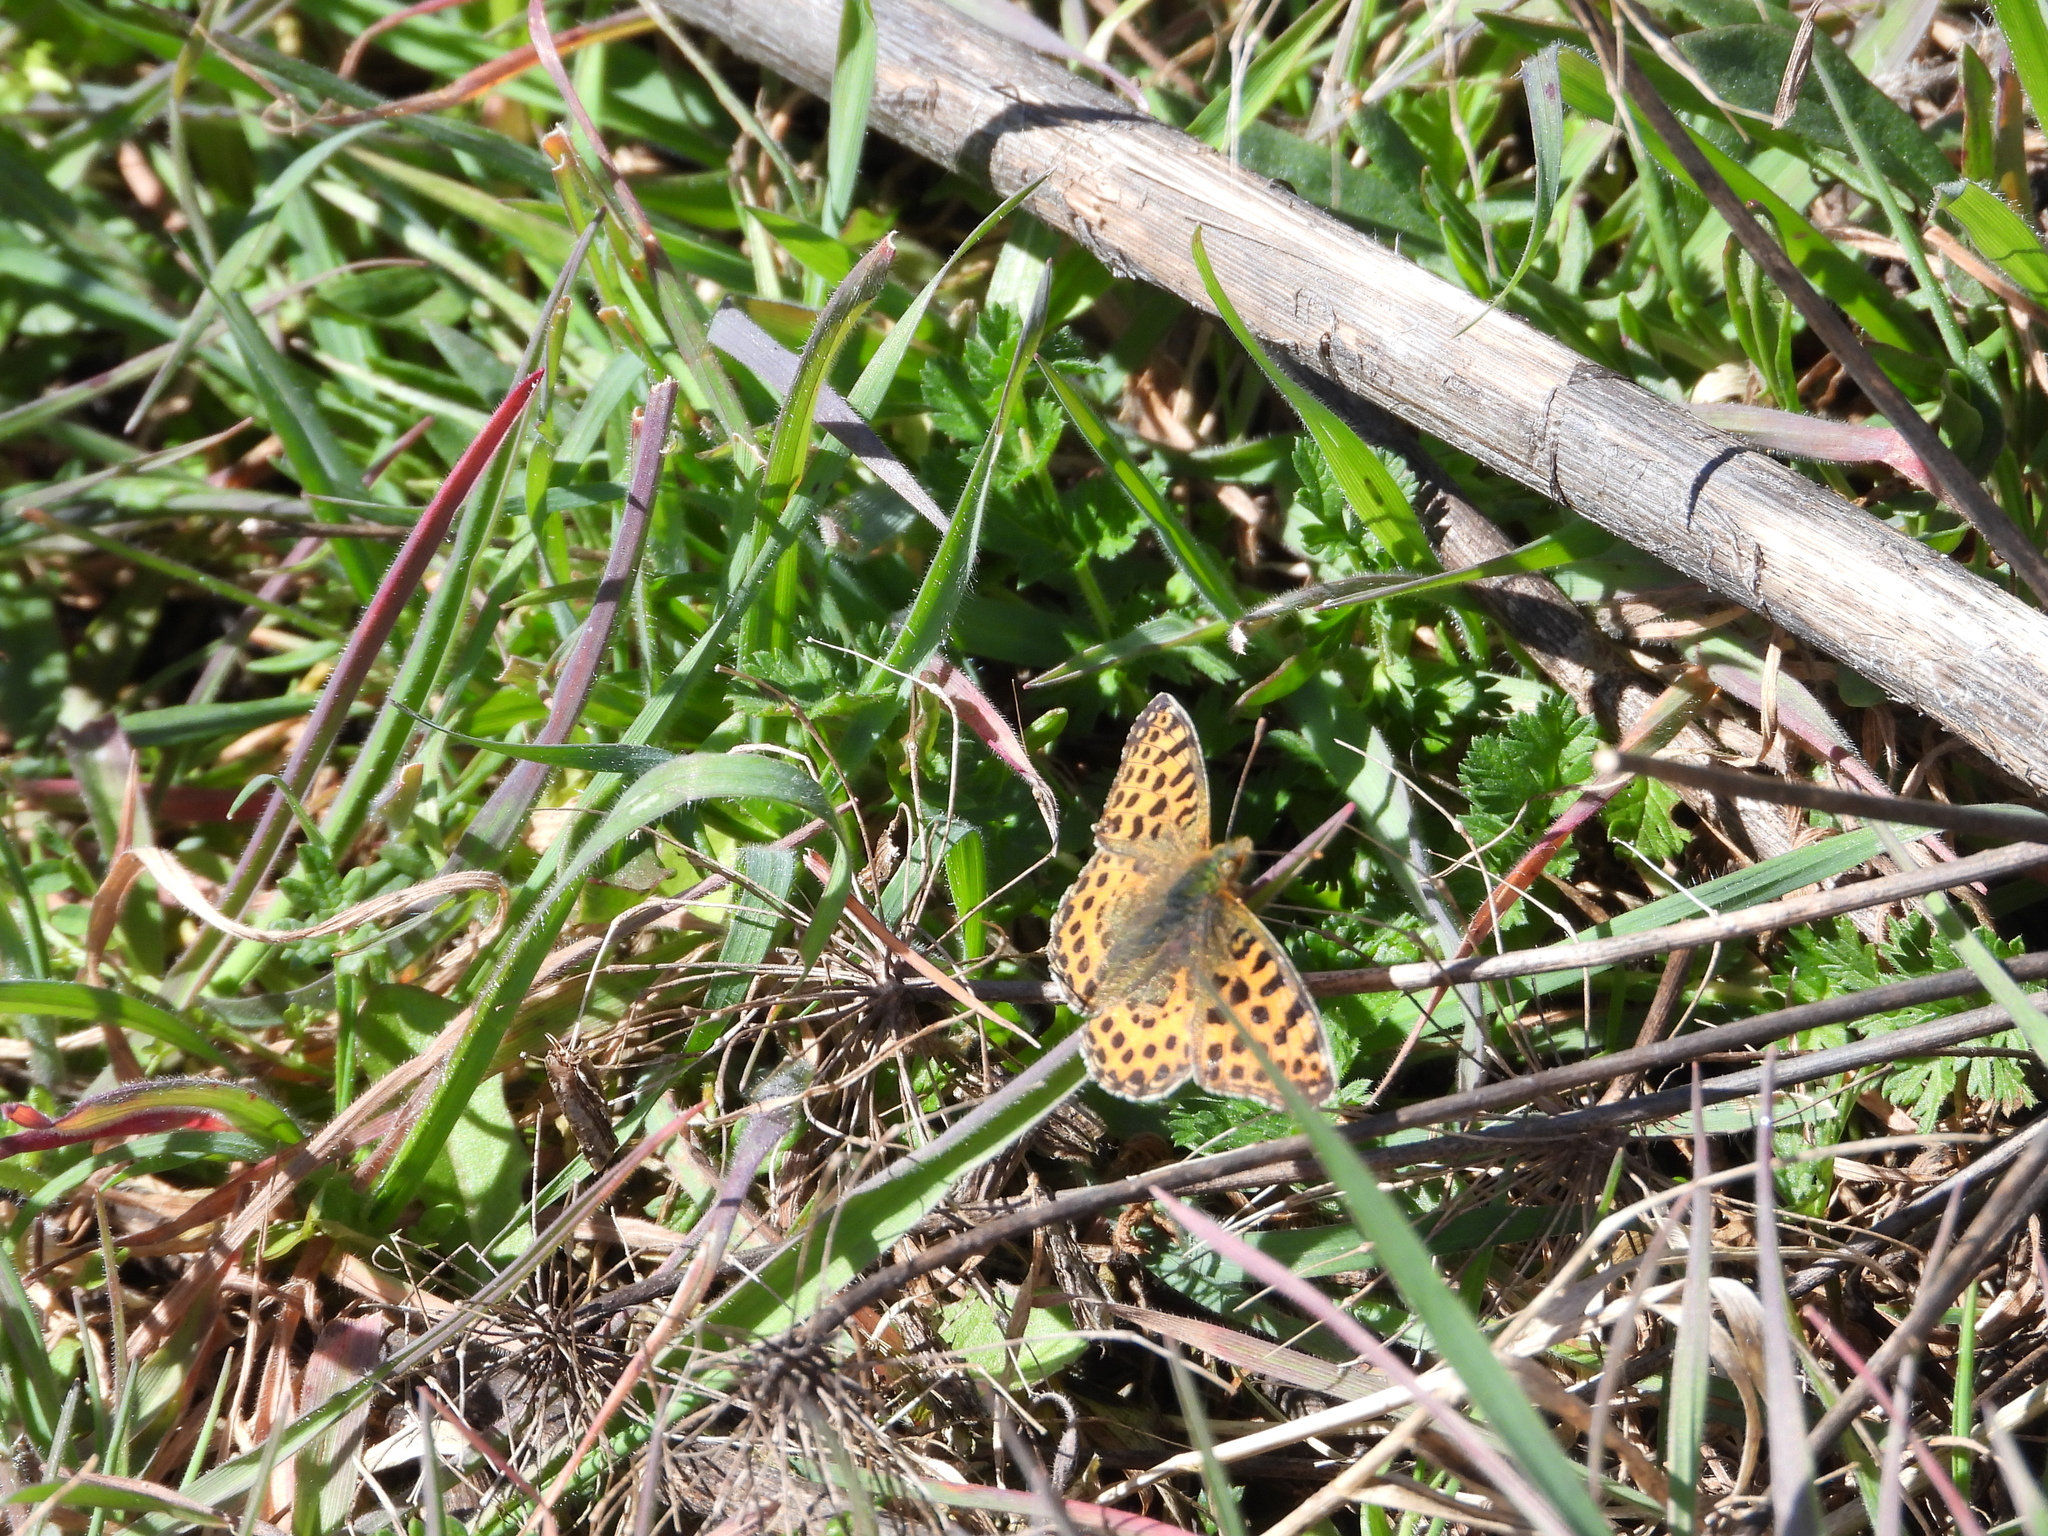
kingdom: Animalia
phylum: Arthropoda
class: Insecta
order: Lepidoptera
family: Nymphalidae
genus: Issoria
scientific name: Issoria lathonia
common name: Queen of spain fritillary
